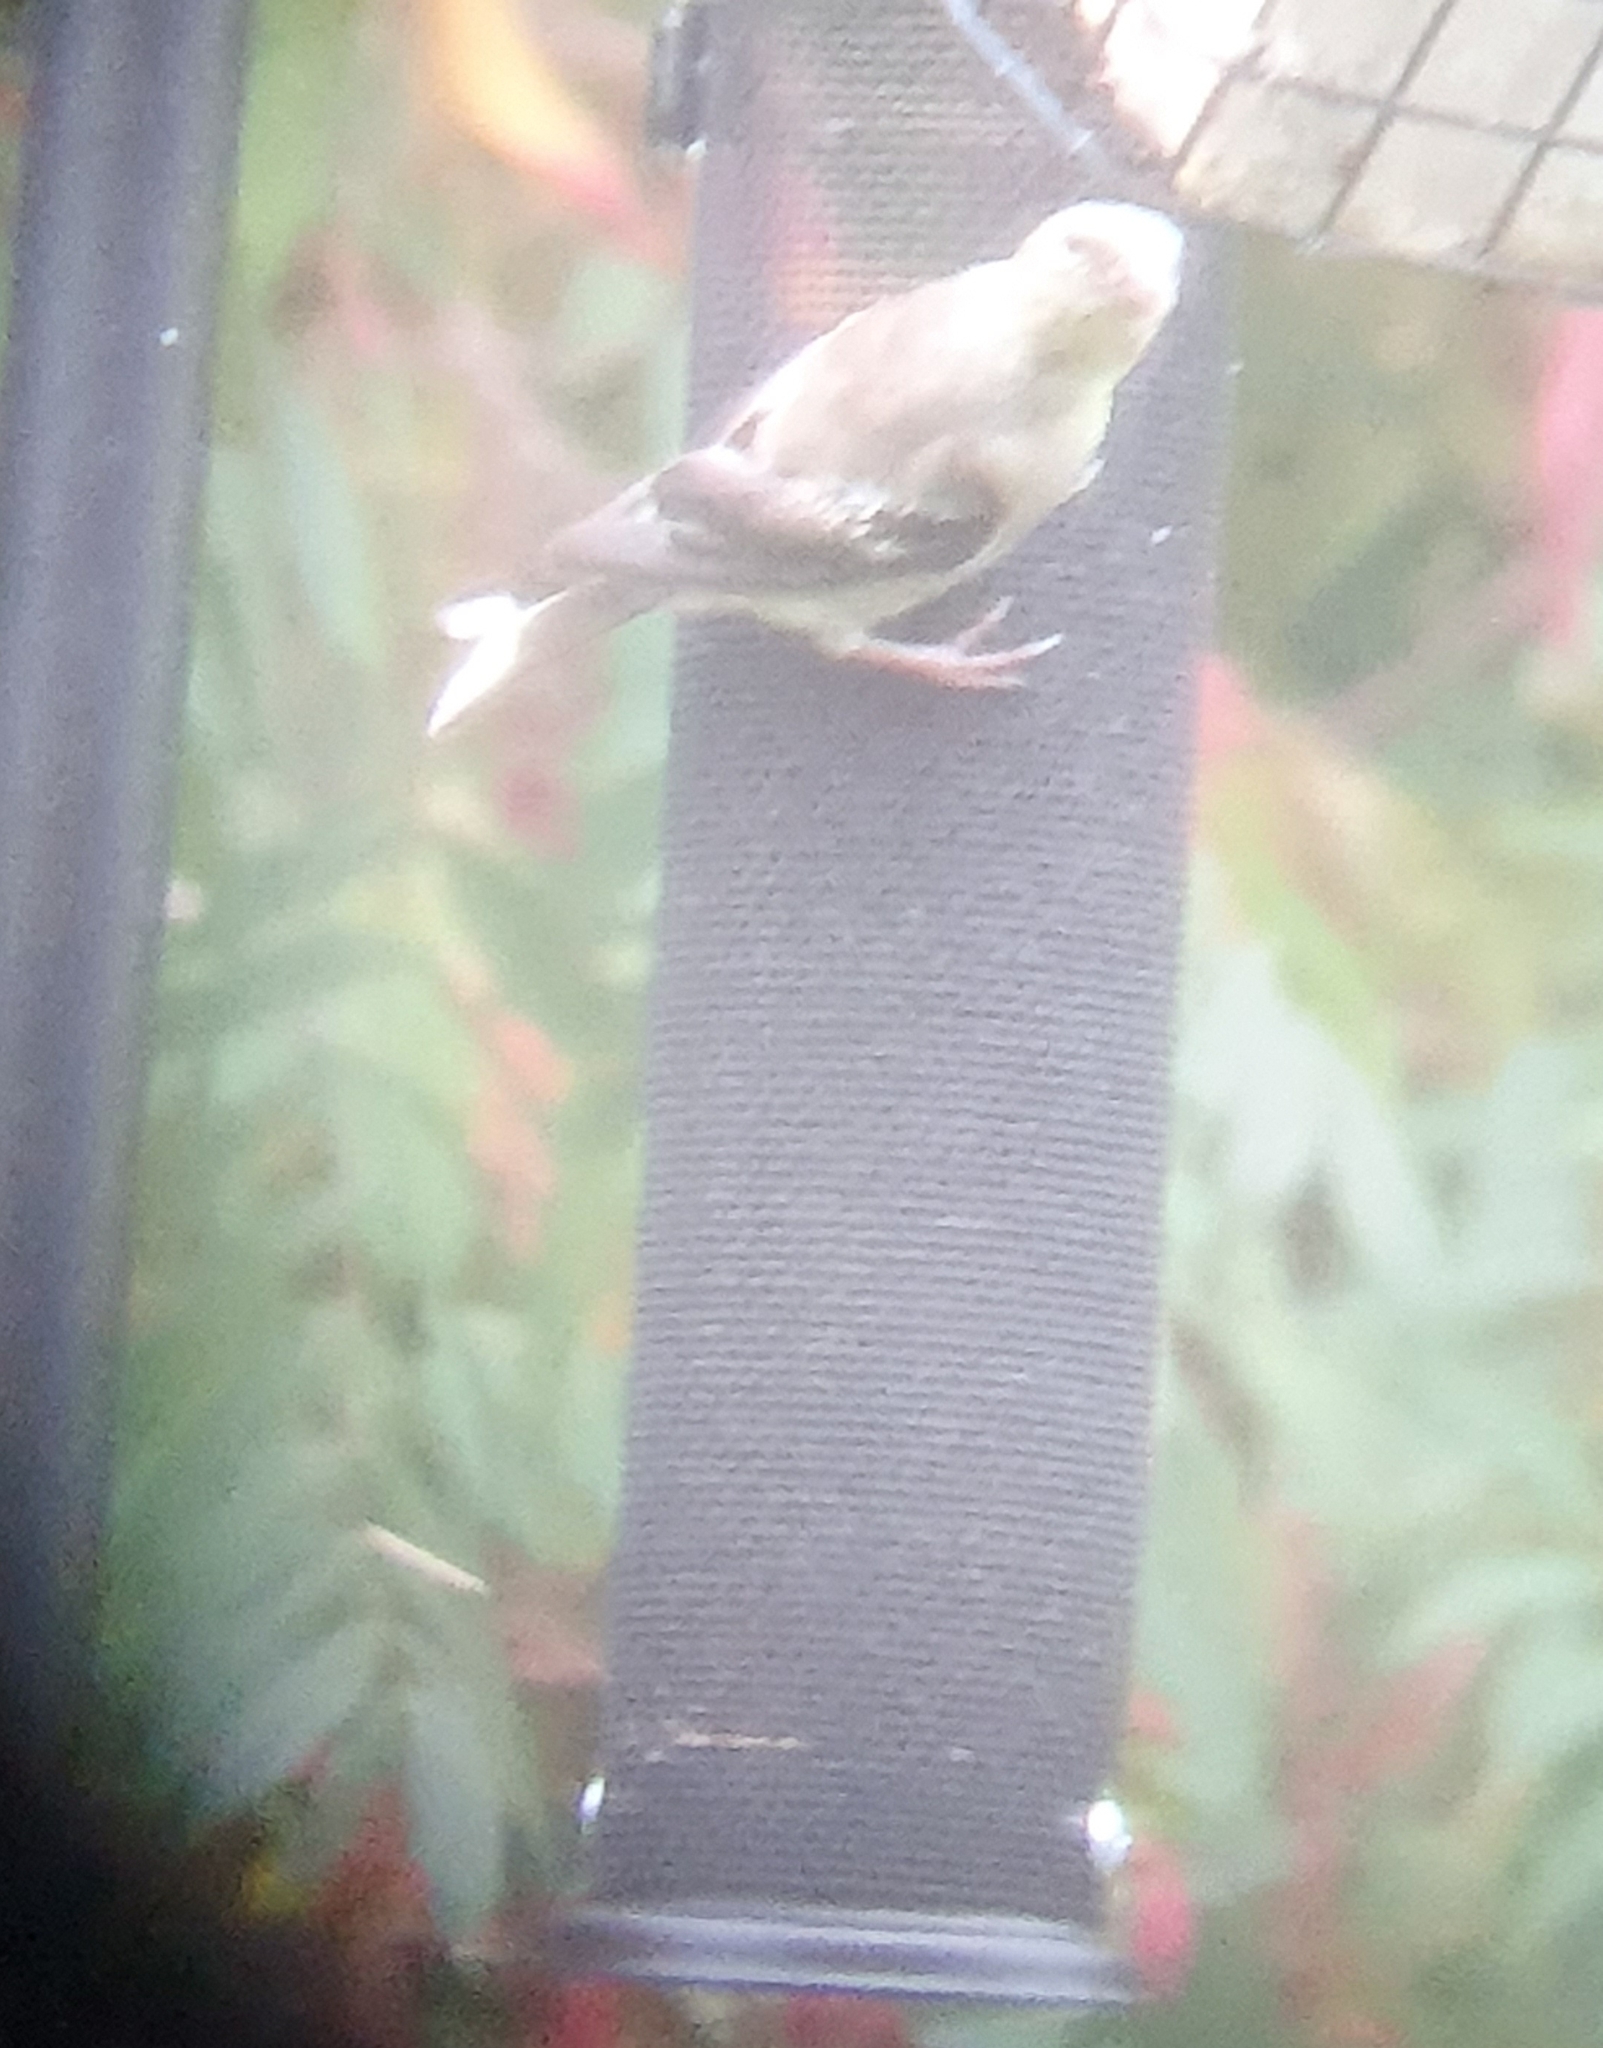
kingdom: Animalia
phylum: Chordata
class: Aves
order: Passeriformes
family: Fringillidae
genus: Spinus
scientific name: Spinus tristis
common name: American goldfinch
